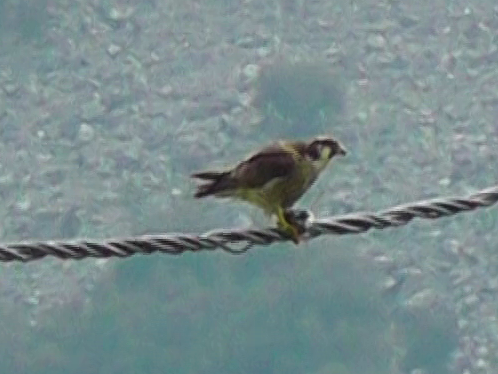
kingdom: Animalia
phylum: Chordata
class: Aves
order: Falconiformes
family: Falconidae
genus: Falco
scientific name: Falco peregrinus
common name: Peregrine falcon
